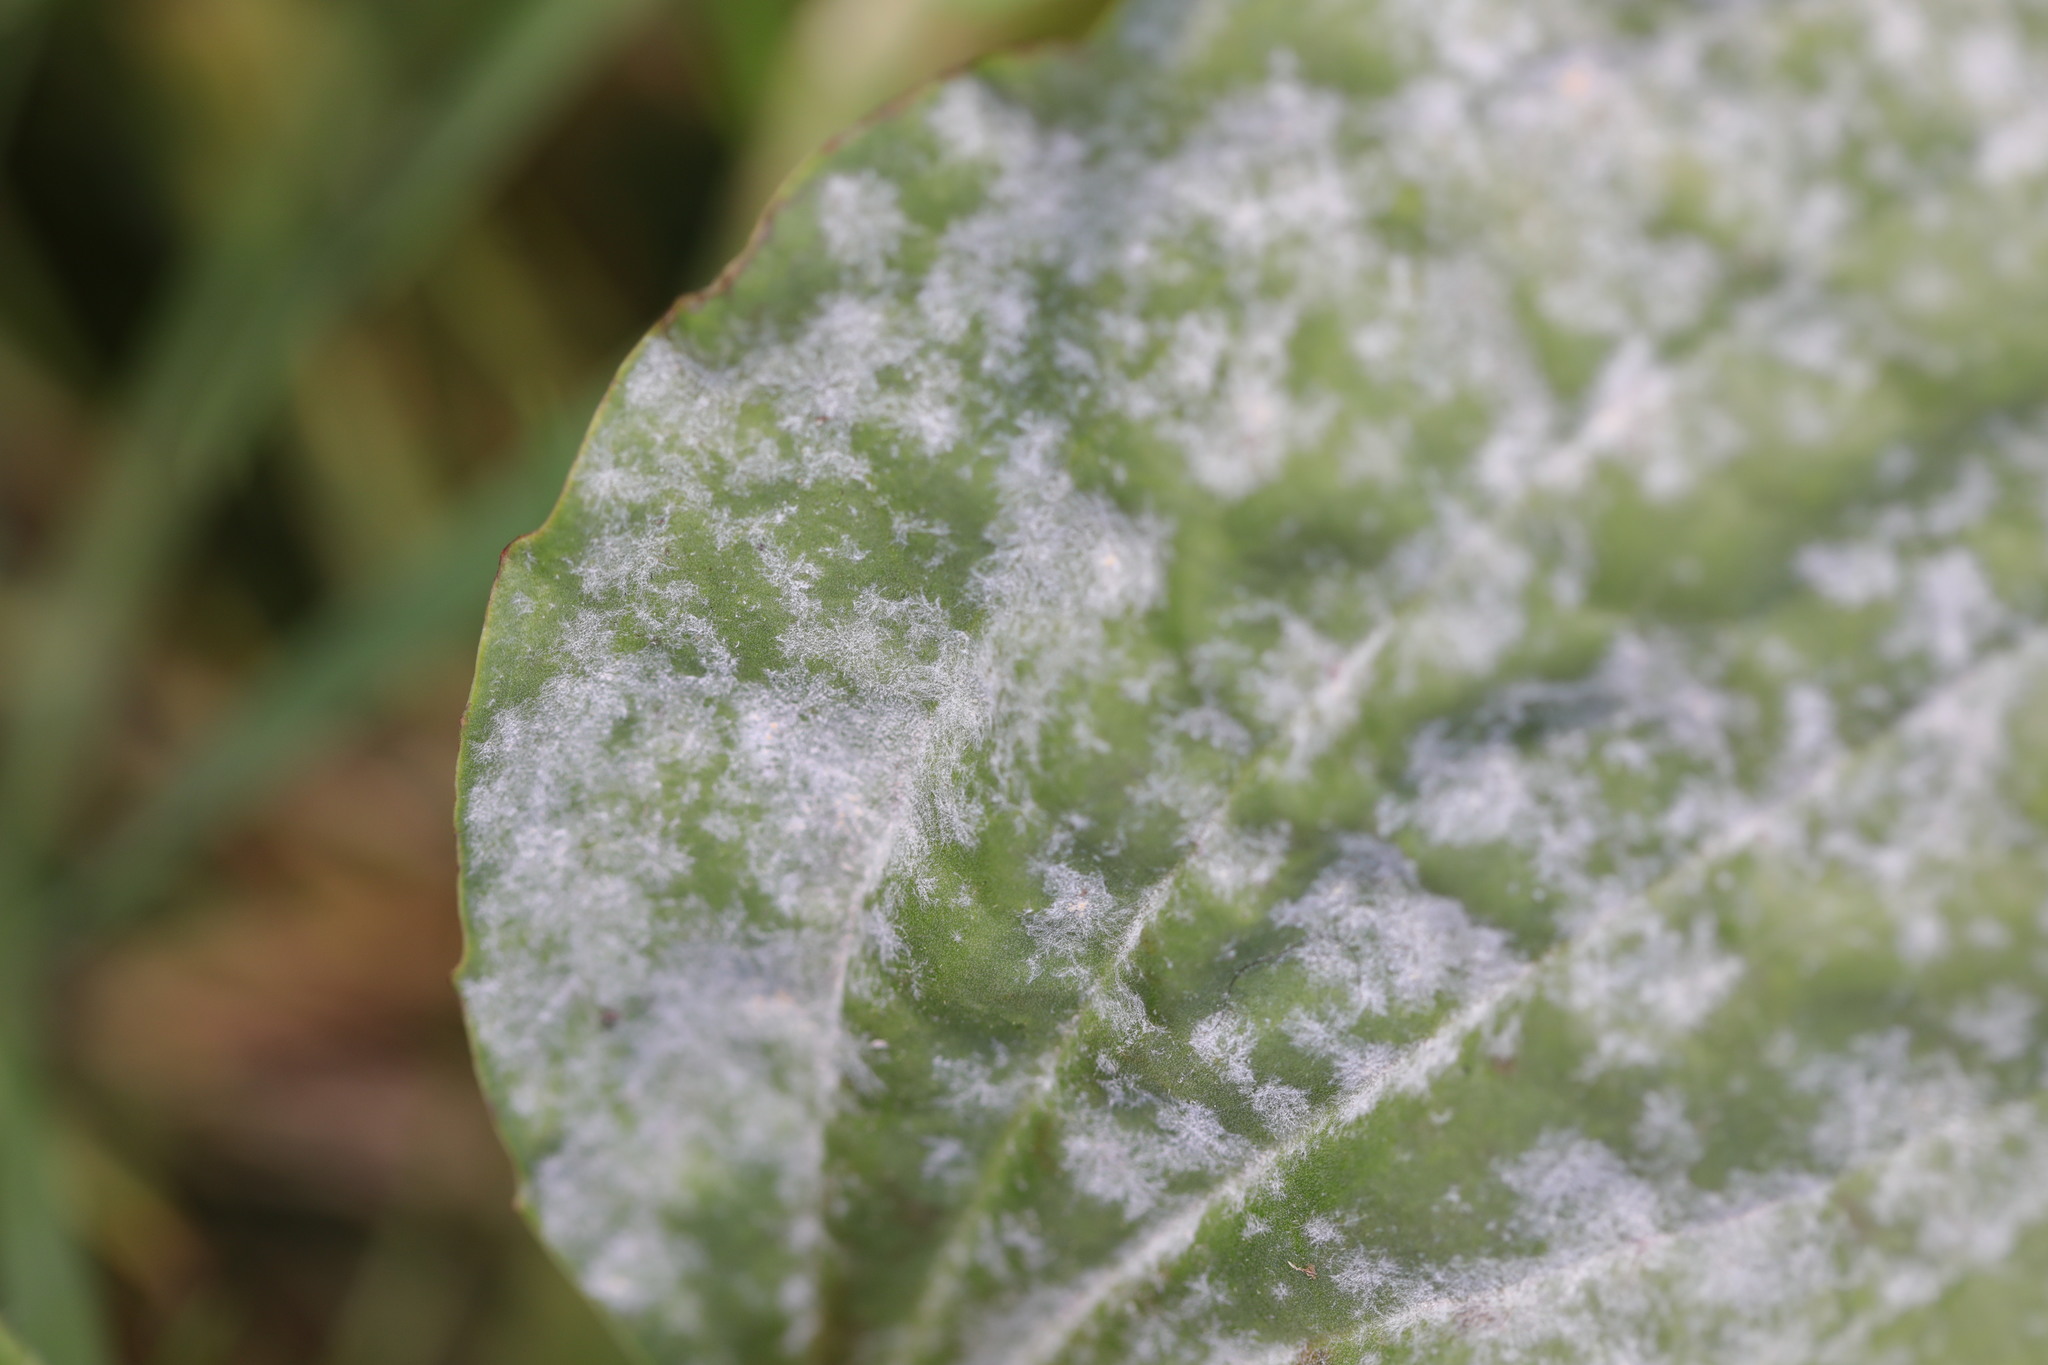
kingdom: Fungi
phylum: Ascomycota
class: Leotiomycetes
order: Helotiales
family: Erysiphaceae
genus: Golovinomyces
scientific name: Golovinomyces sordidus
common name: Plantain mildew
